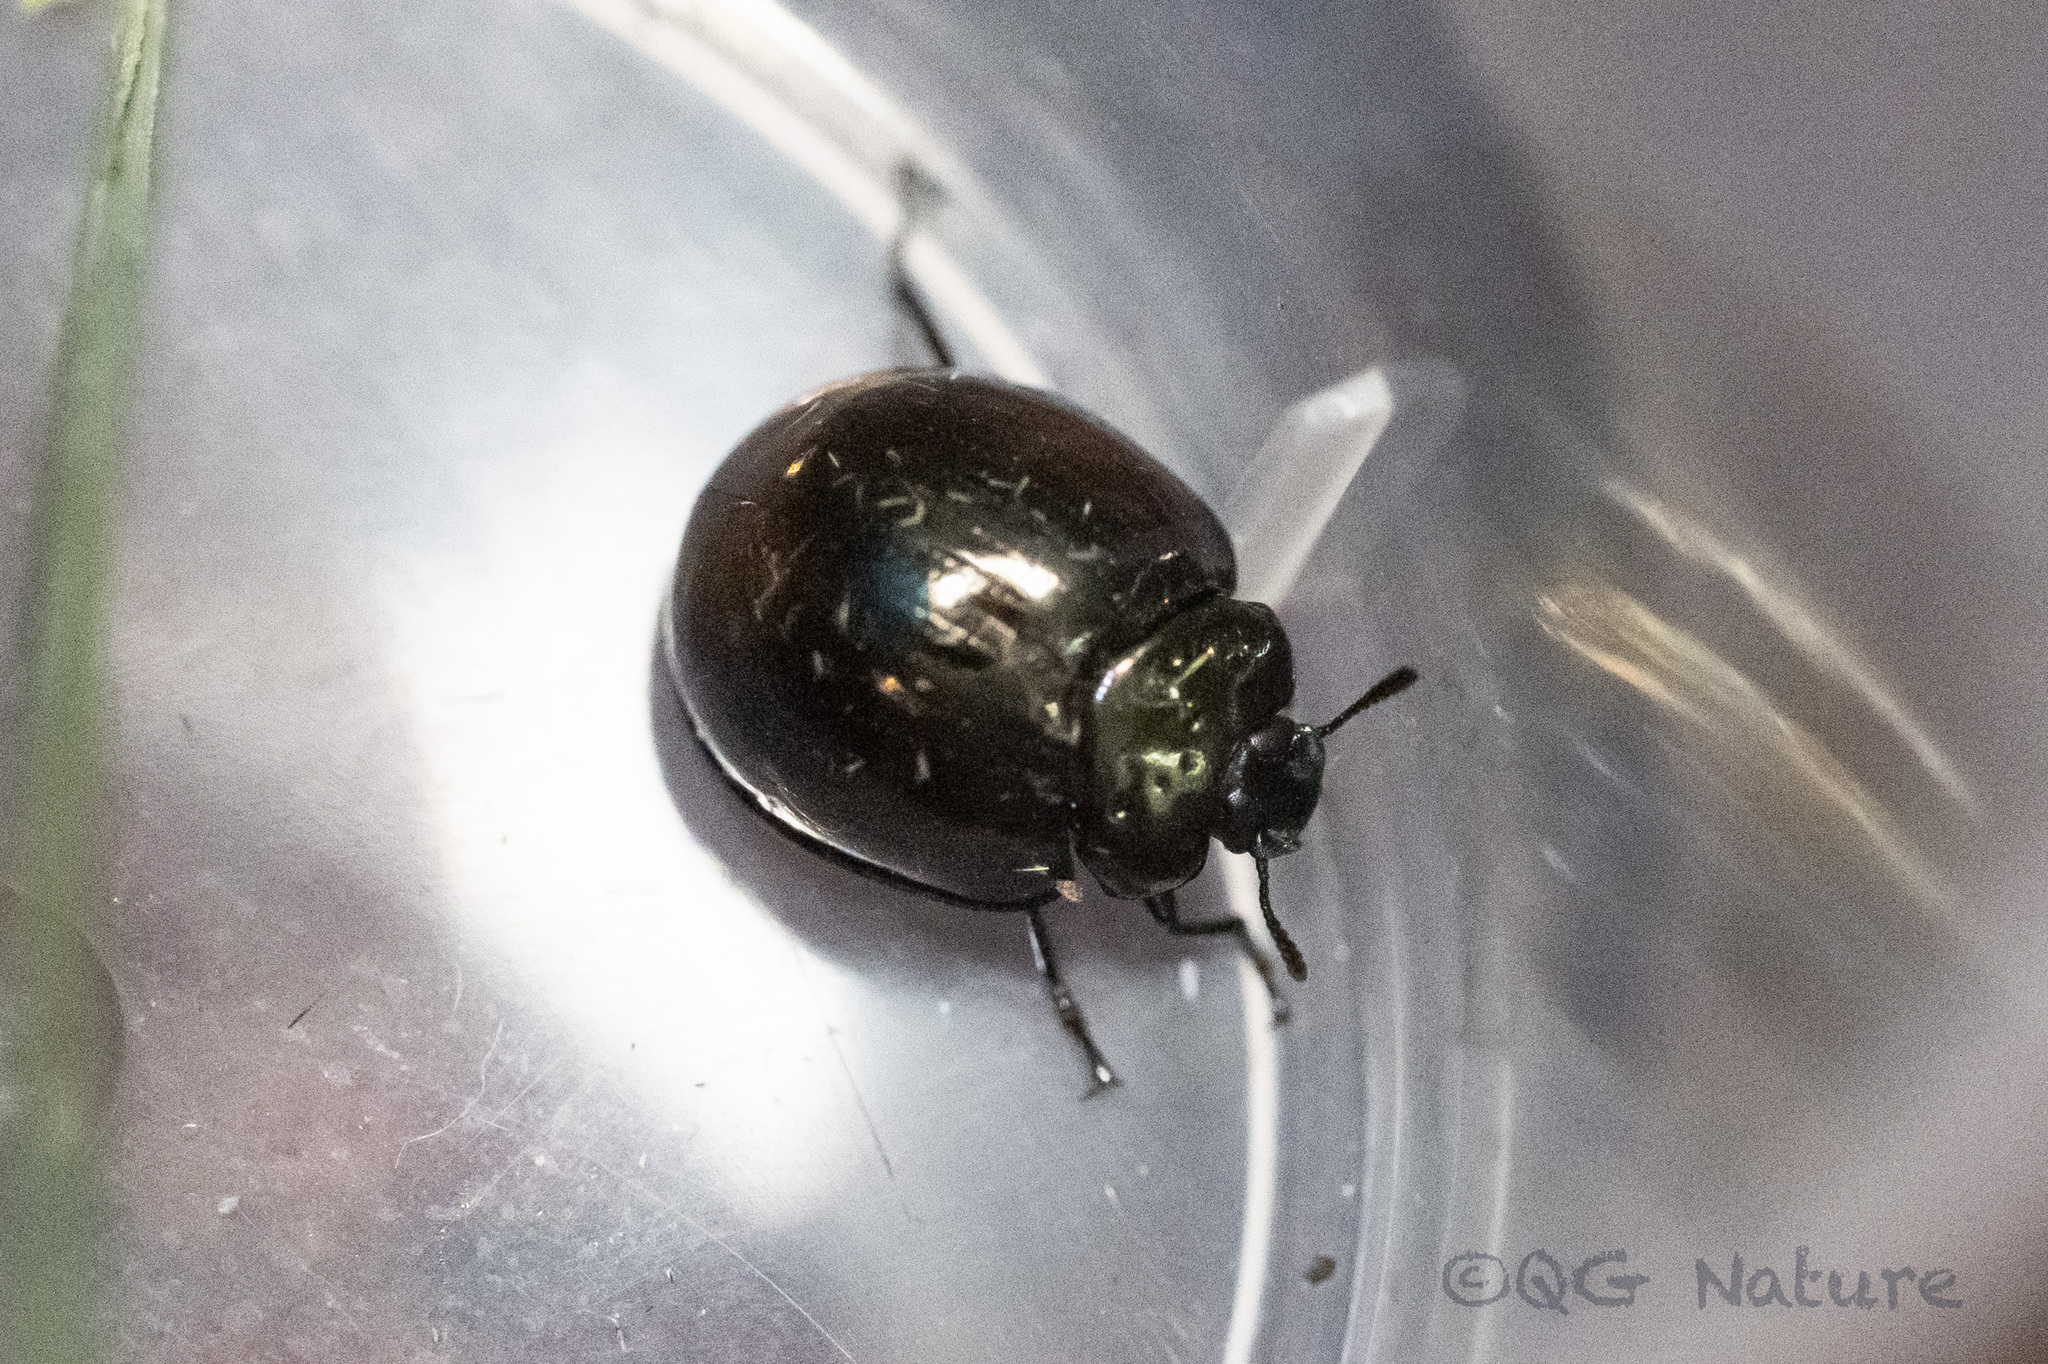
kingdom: Animalia
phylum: Arthropoda
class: Insecta
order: Coleoptera
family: Tenebrionidae
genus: Artactes
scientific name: Artactes cyaneolimbatus
